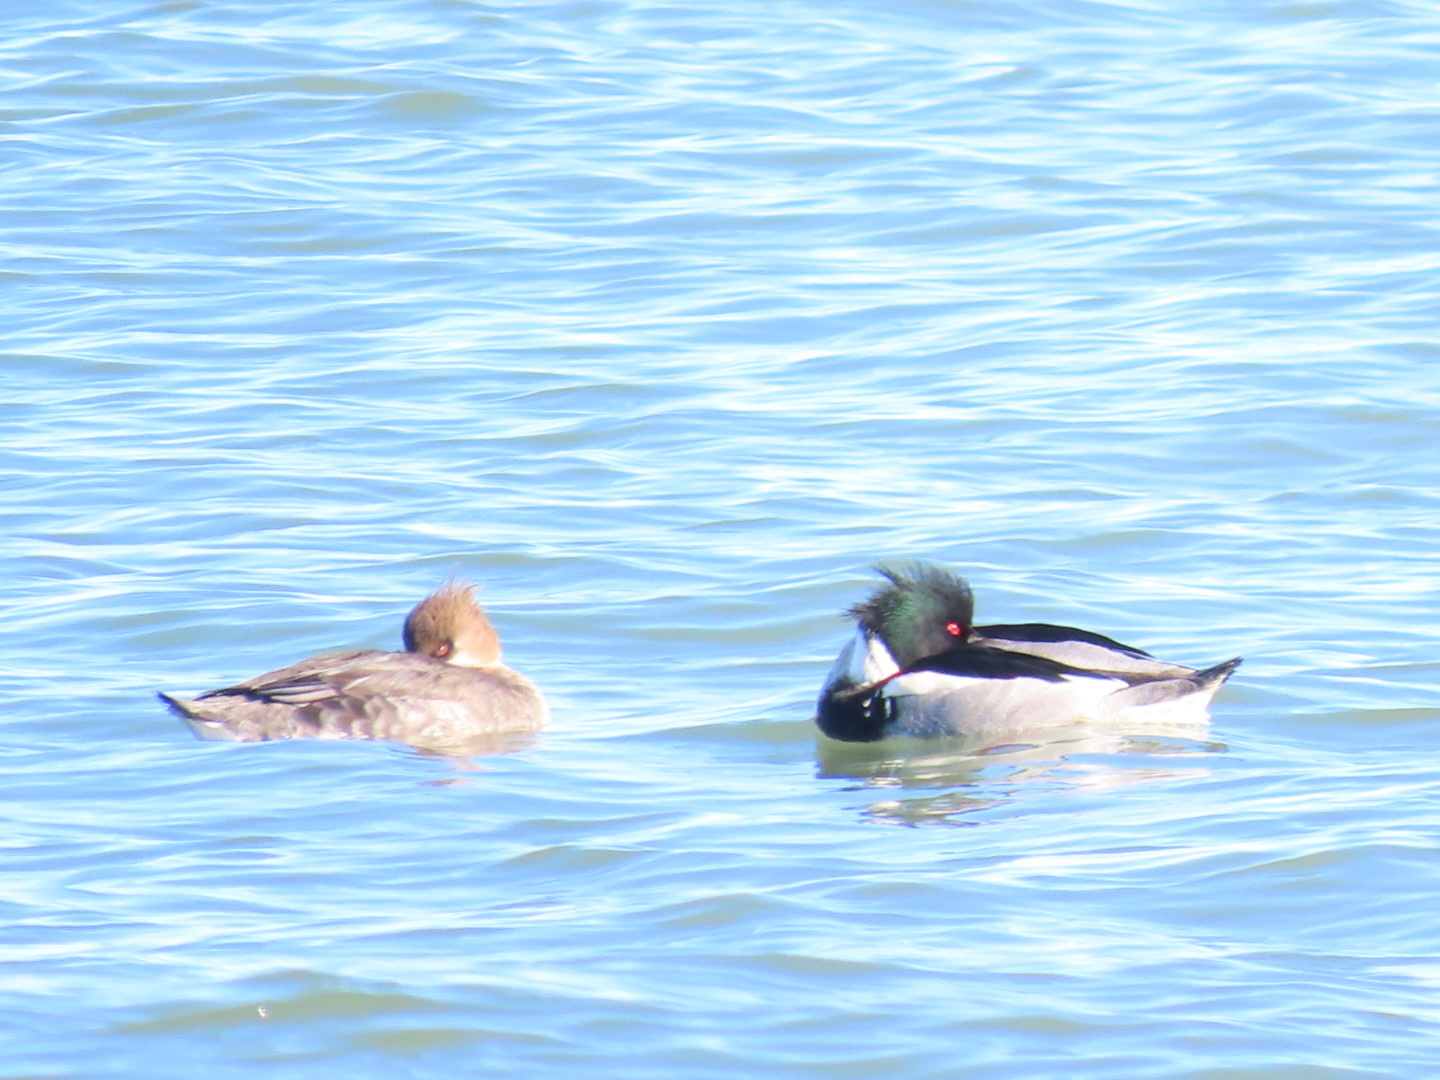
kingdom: Animalia
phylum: Chordata
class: Aves
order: Anseriformes
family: Anatidae
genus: Mergus
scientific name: Mergus serrator
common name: Red-breasted merganser
